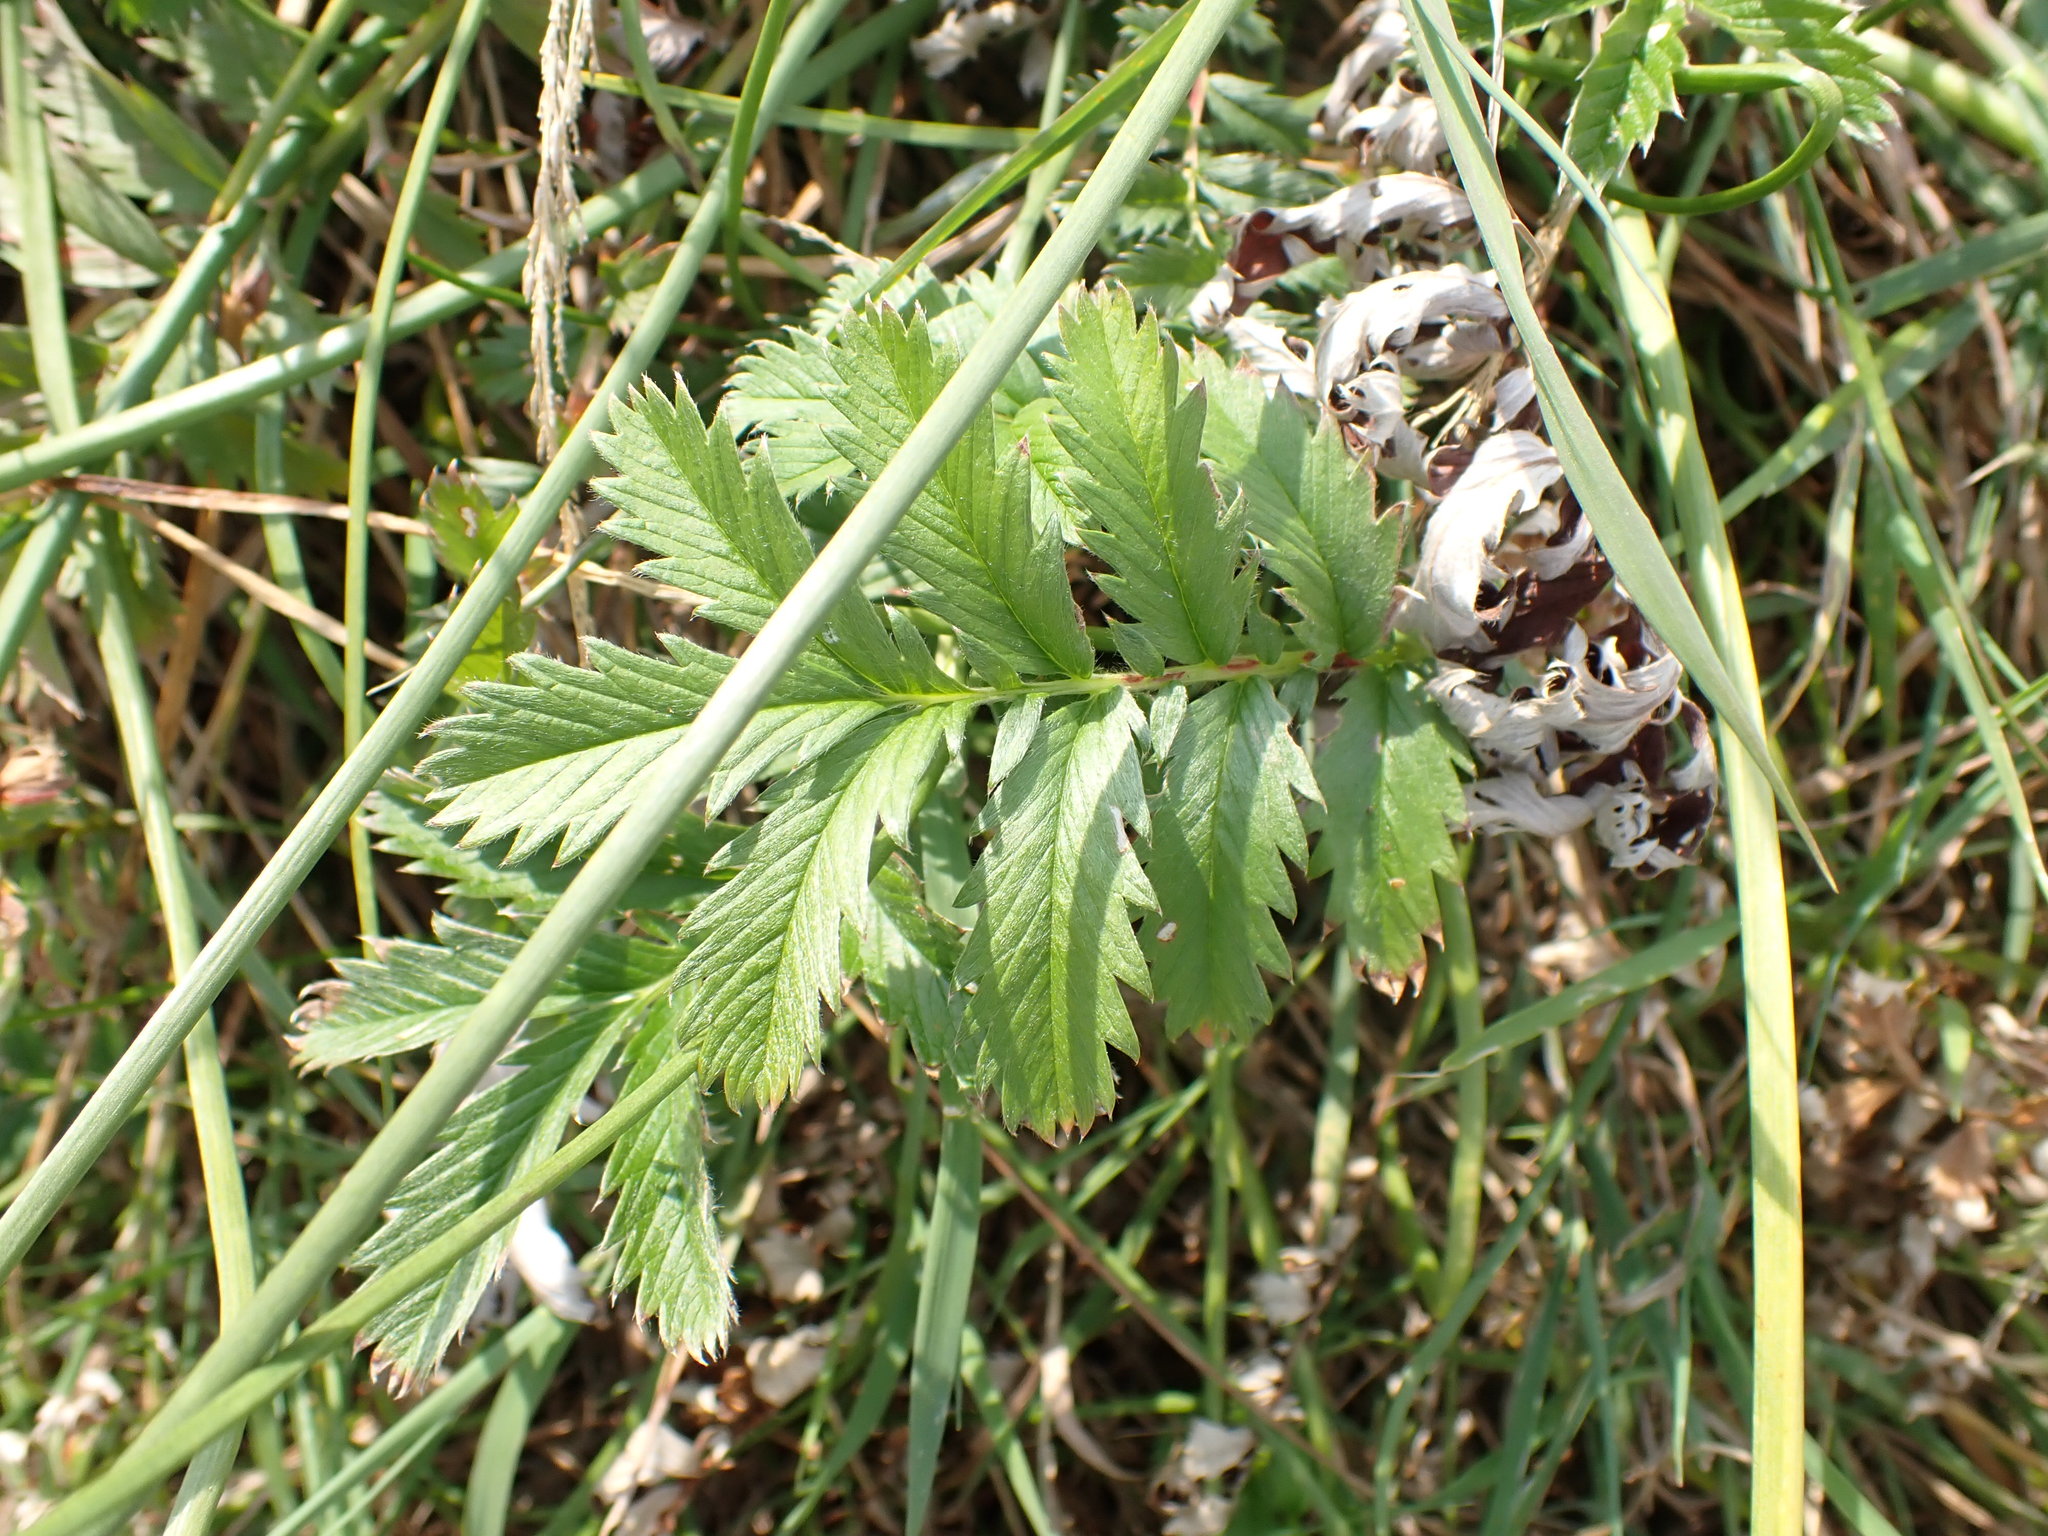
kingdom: Plantae
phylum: Tracheophyta
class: Magnoliopsida
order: Rosales
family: Rosaceae
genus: Argentina
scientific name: Argentina anserina
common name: Common silverweed
